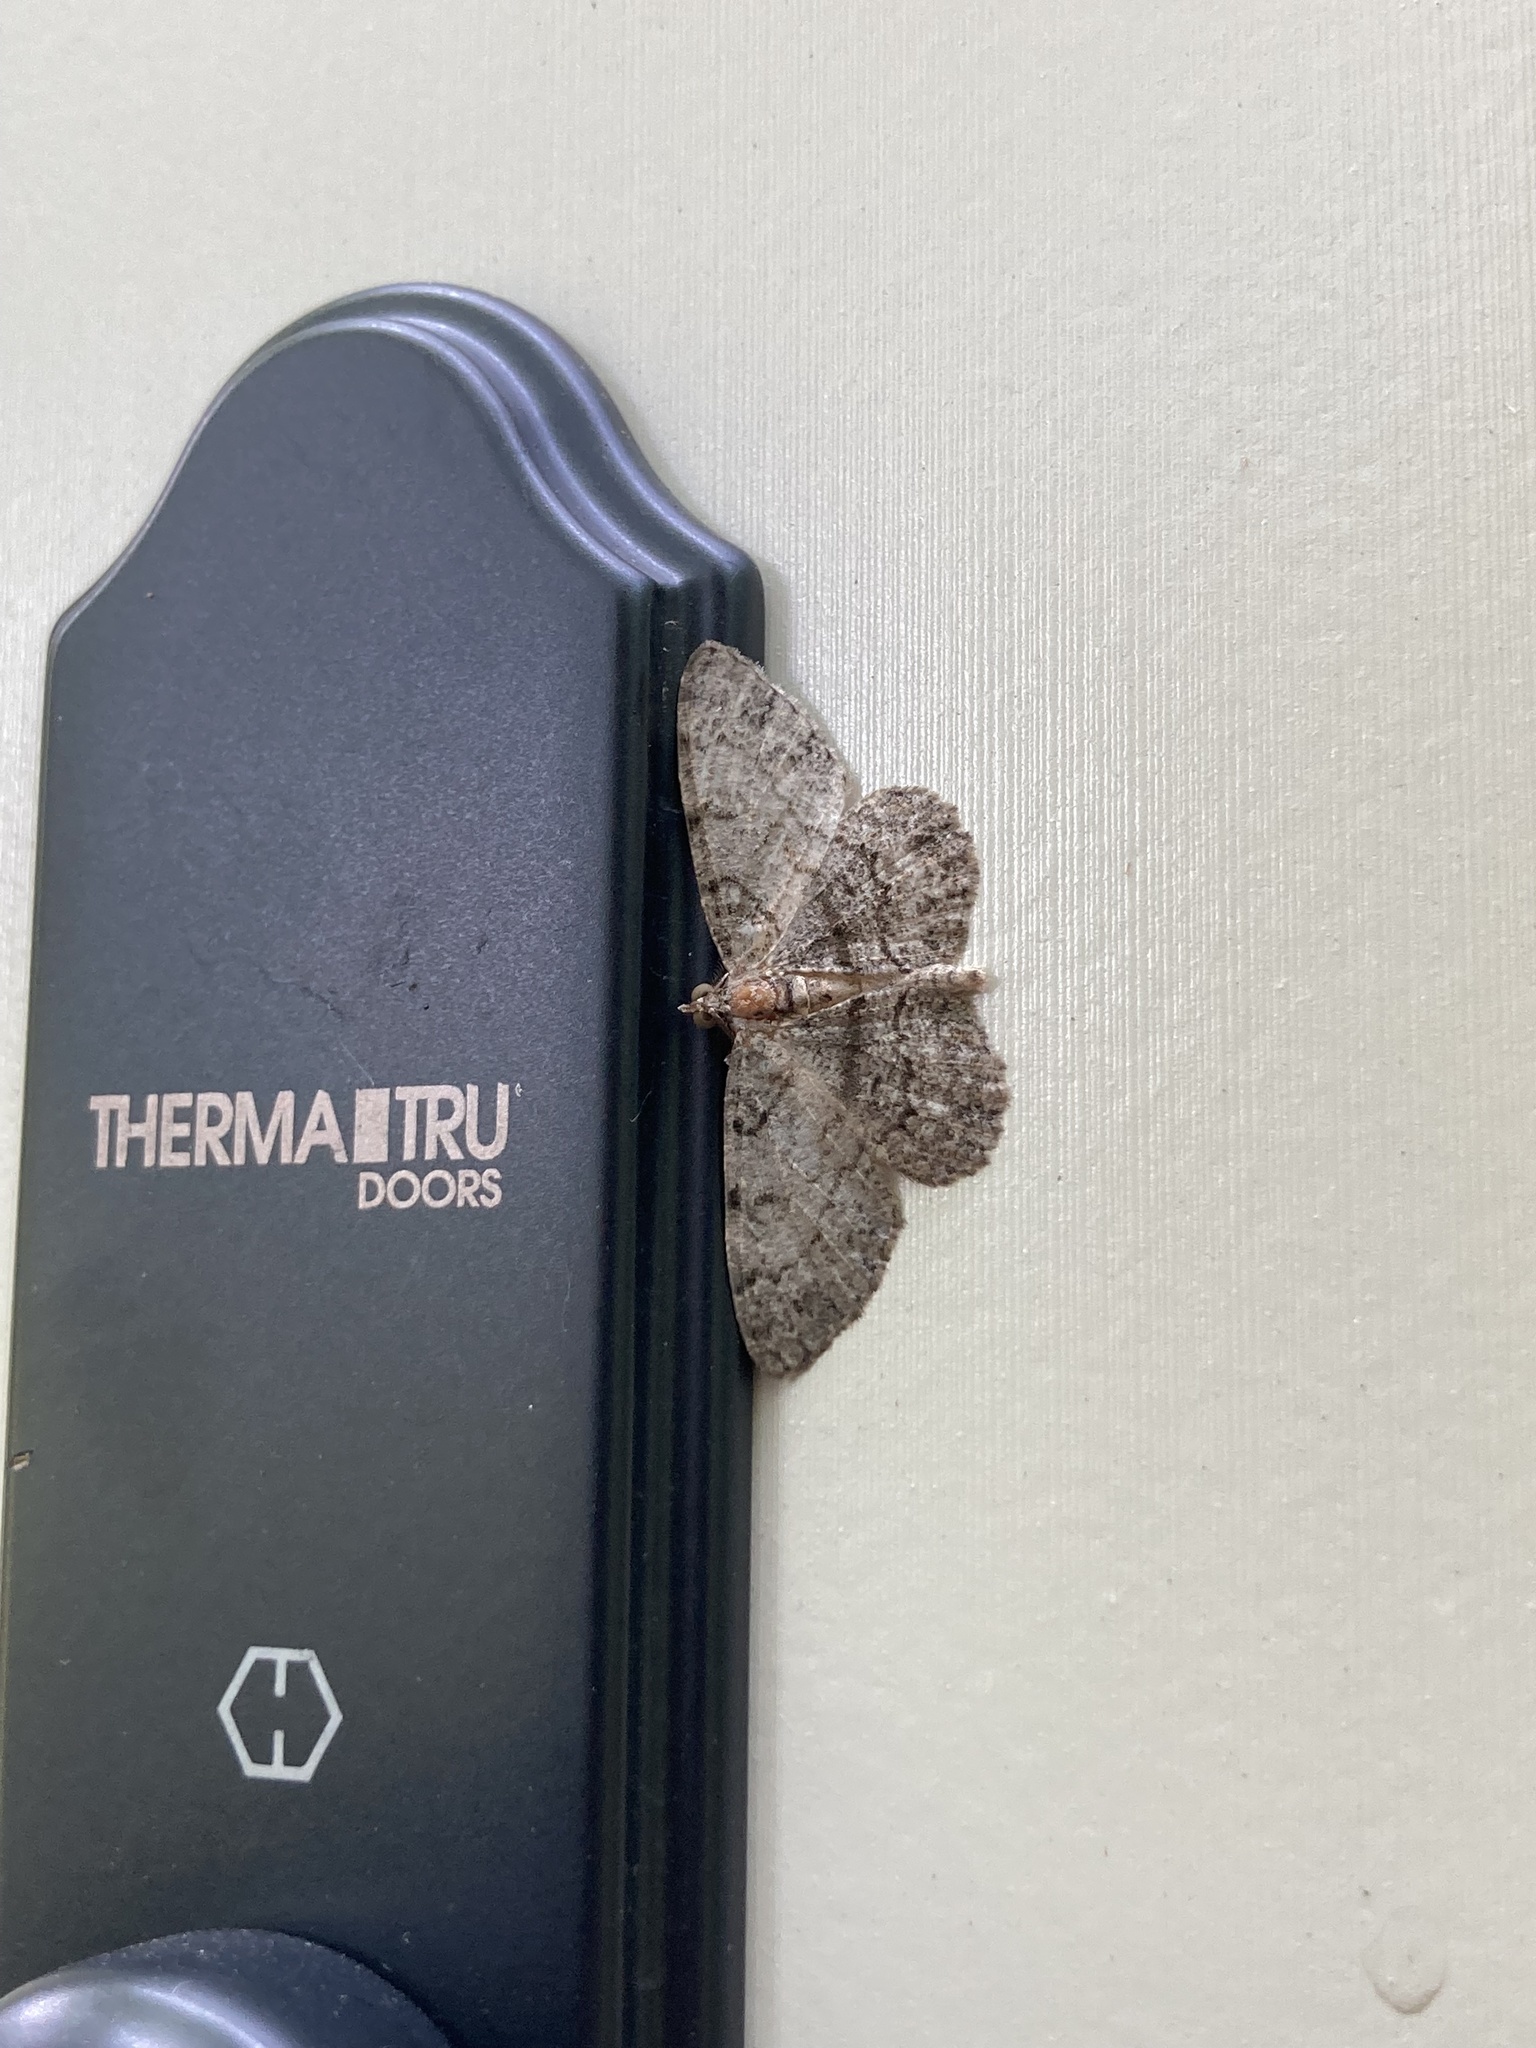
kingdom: Animalia
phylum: Arthropoda
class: Insecta
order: Lepidoptera
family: Geometridae
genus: Protoboarmia
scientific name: Protoboarmia porcelaria
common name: Porcelain gray
